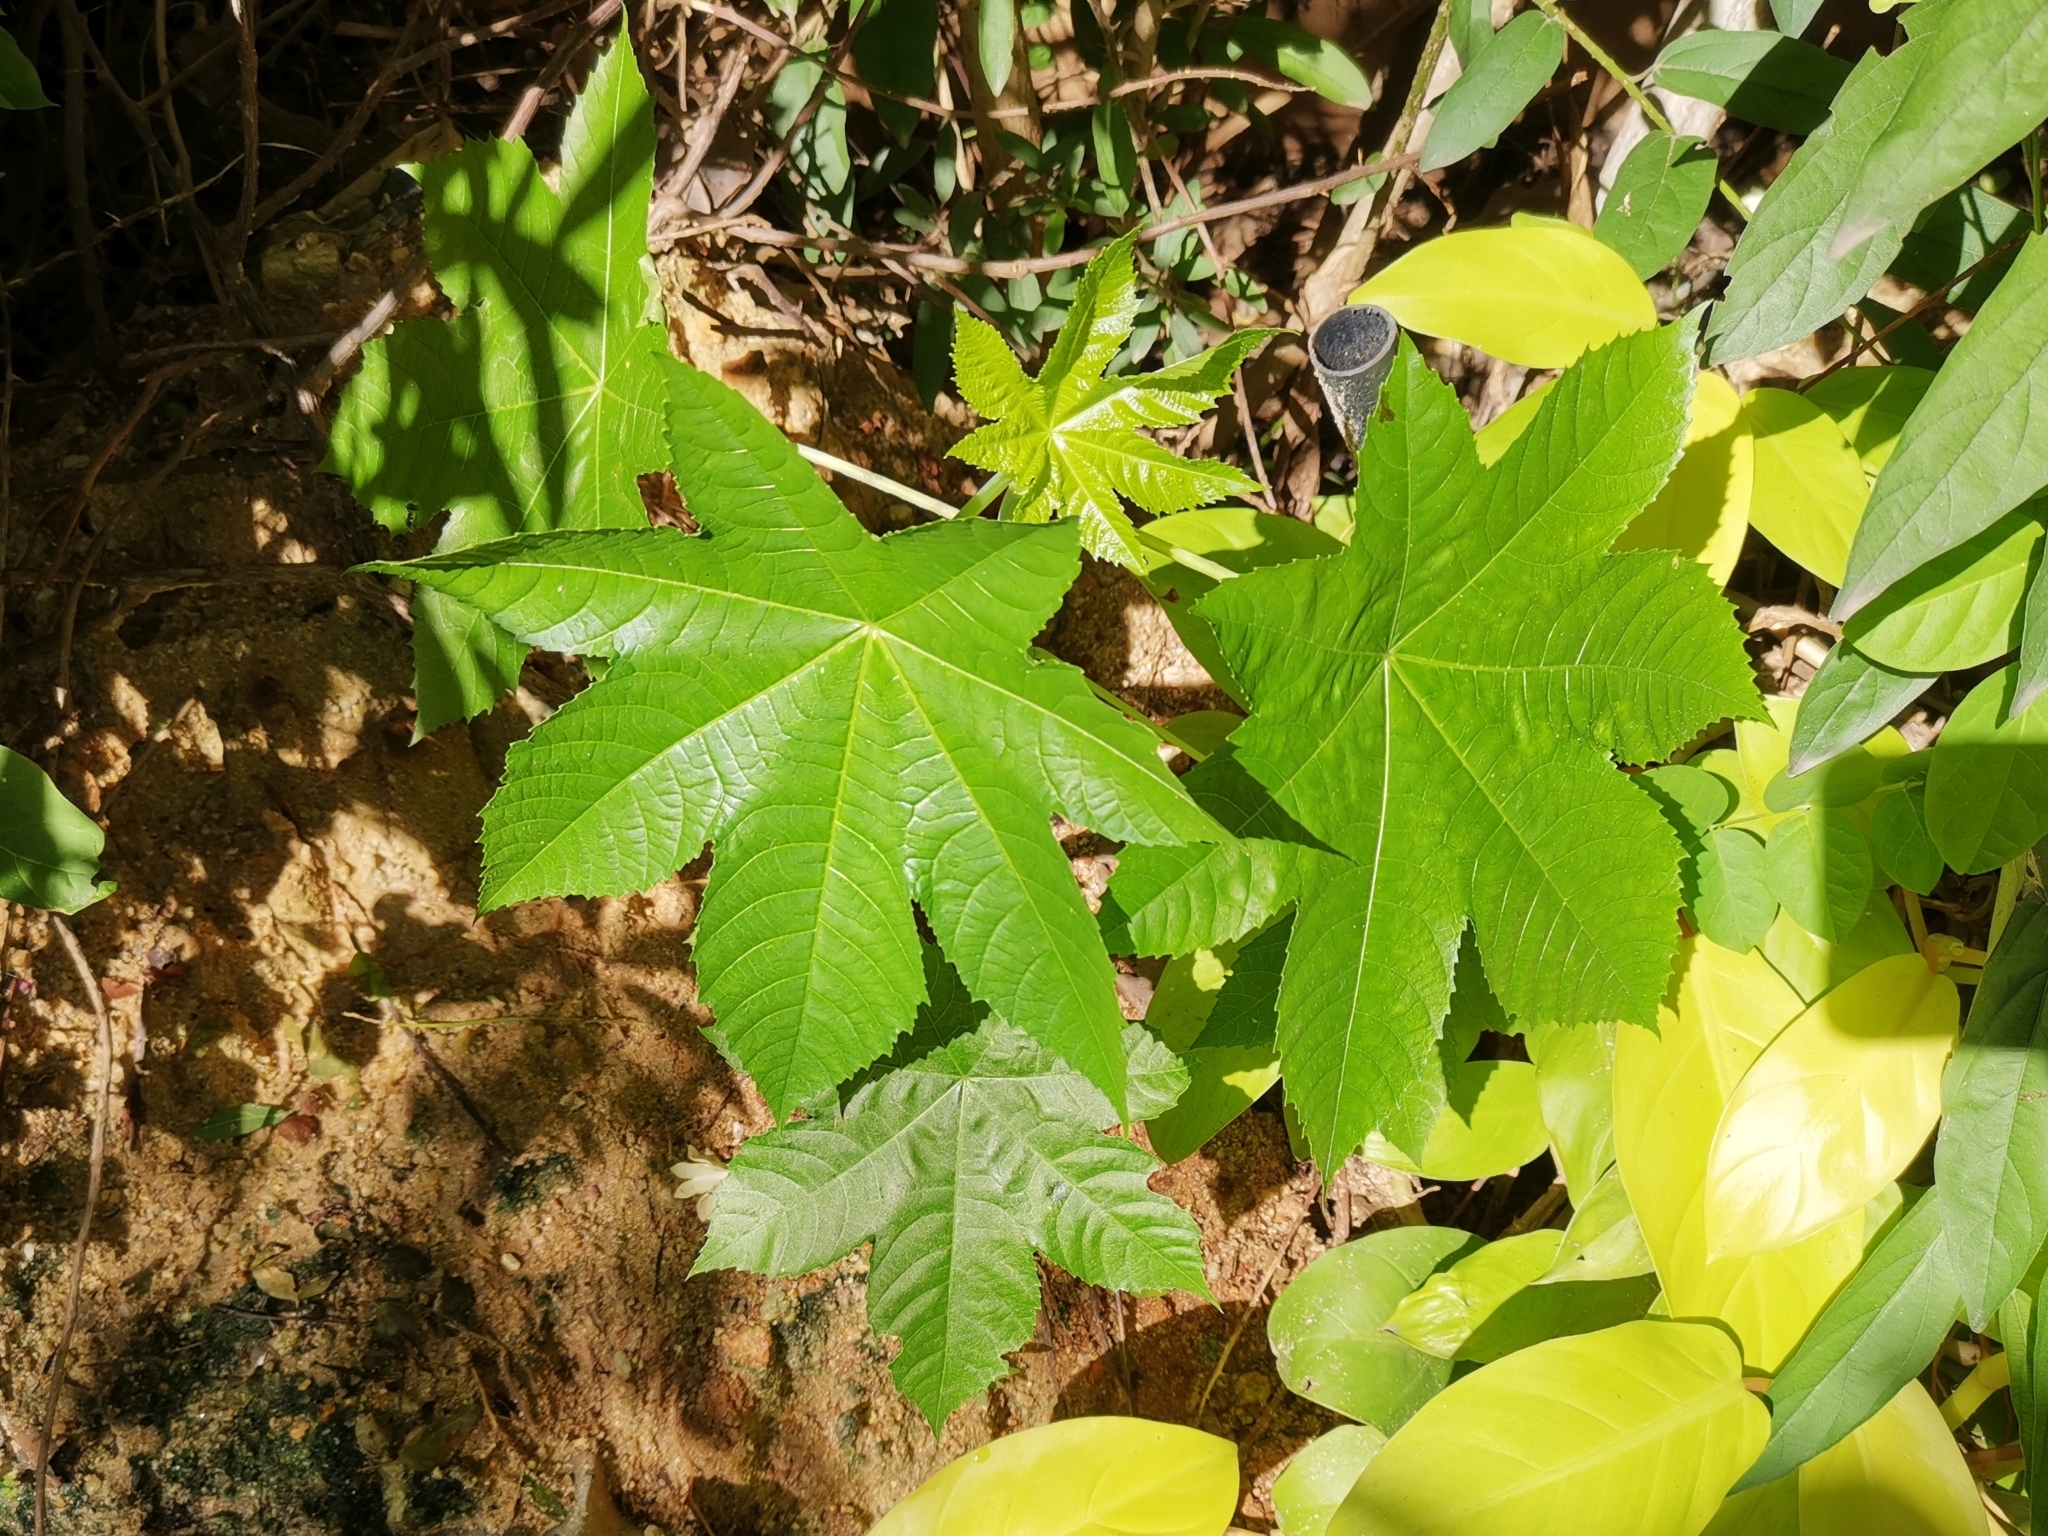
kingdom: Plantae
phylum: Tracheophyta
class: Magnoliopsida
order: Malpighiales
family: Euphorbiaceae
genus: Ricinus
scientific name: Ricinus communis
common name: Castor-oil-plant
